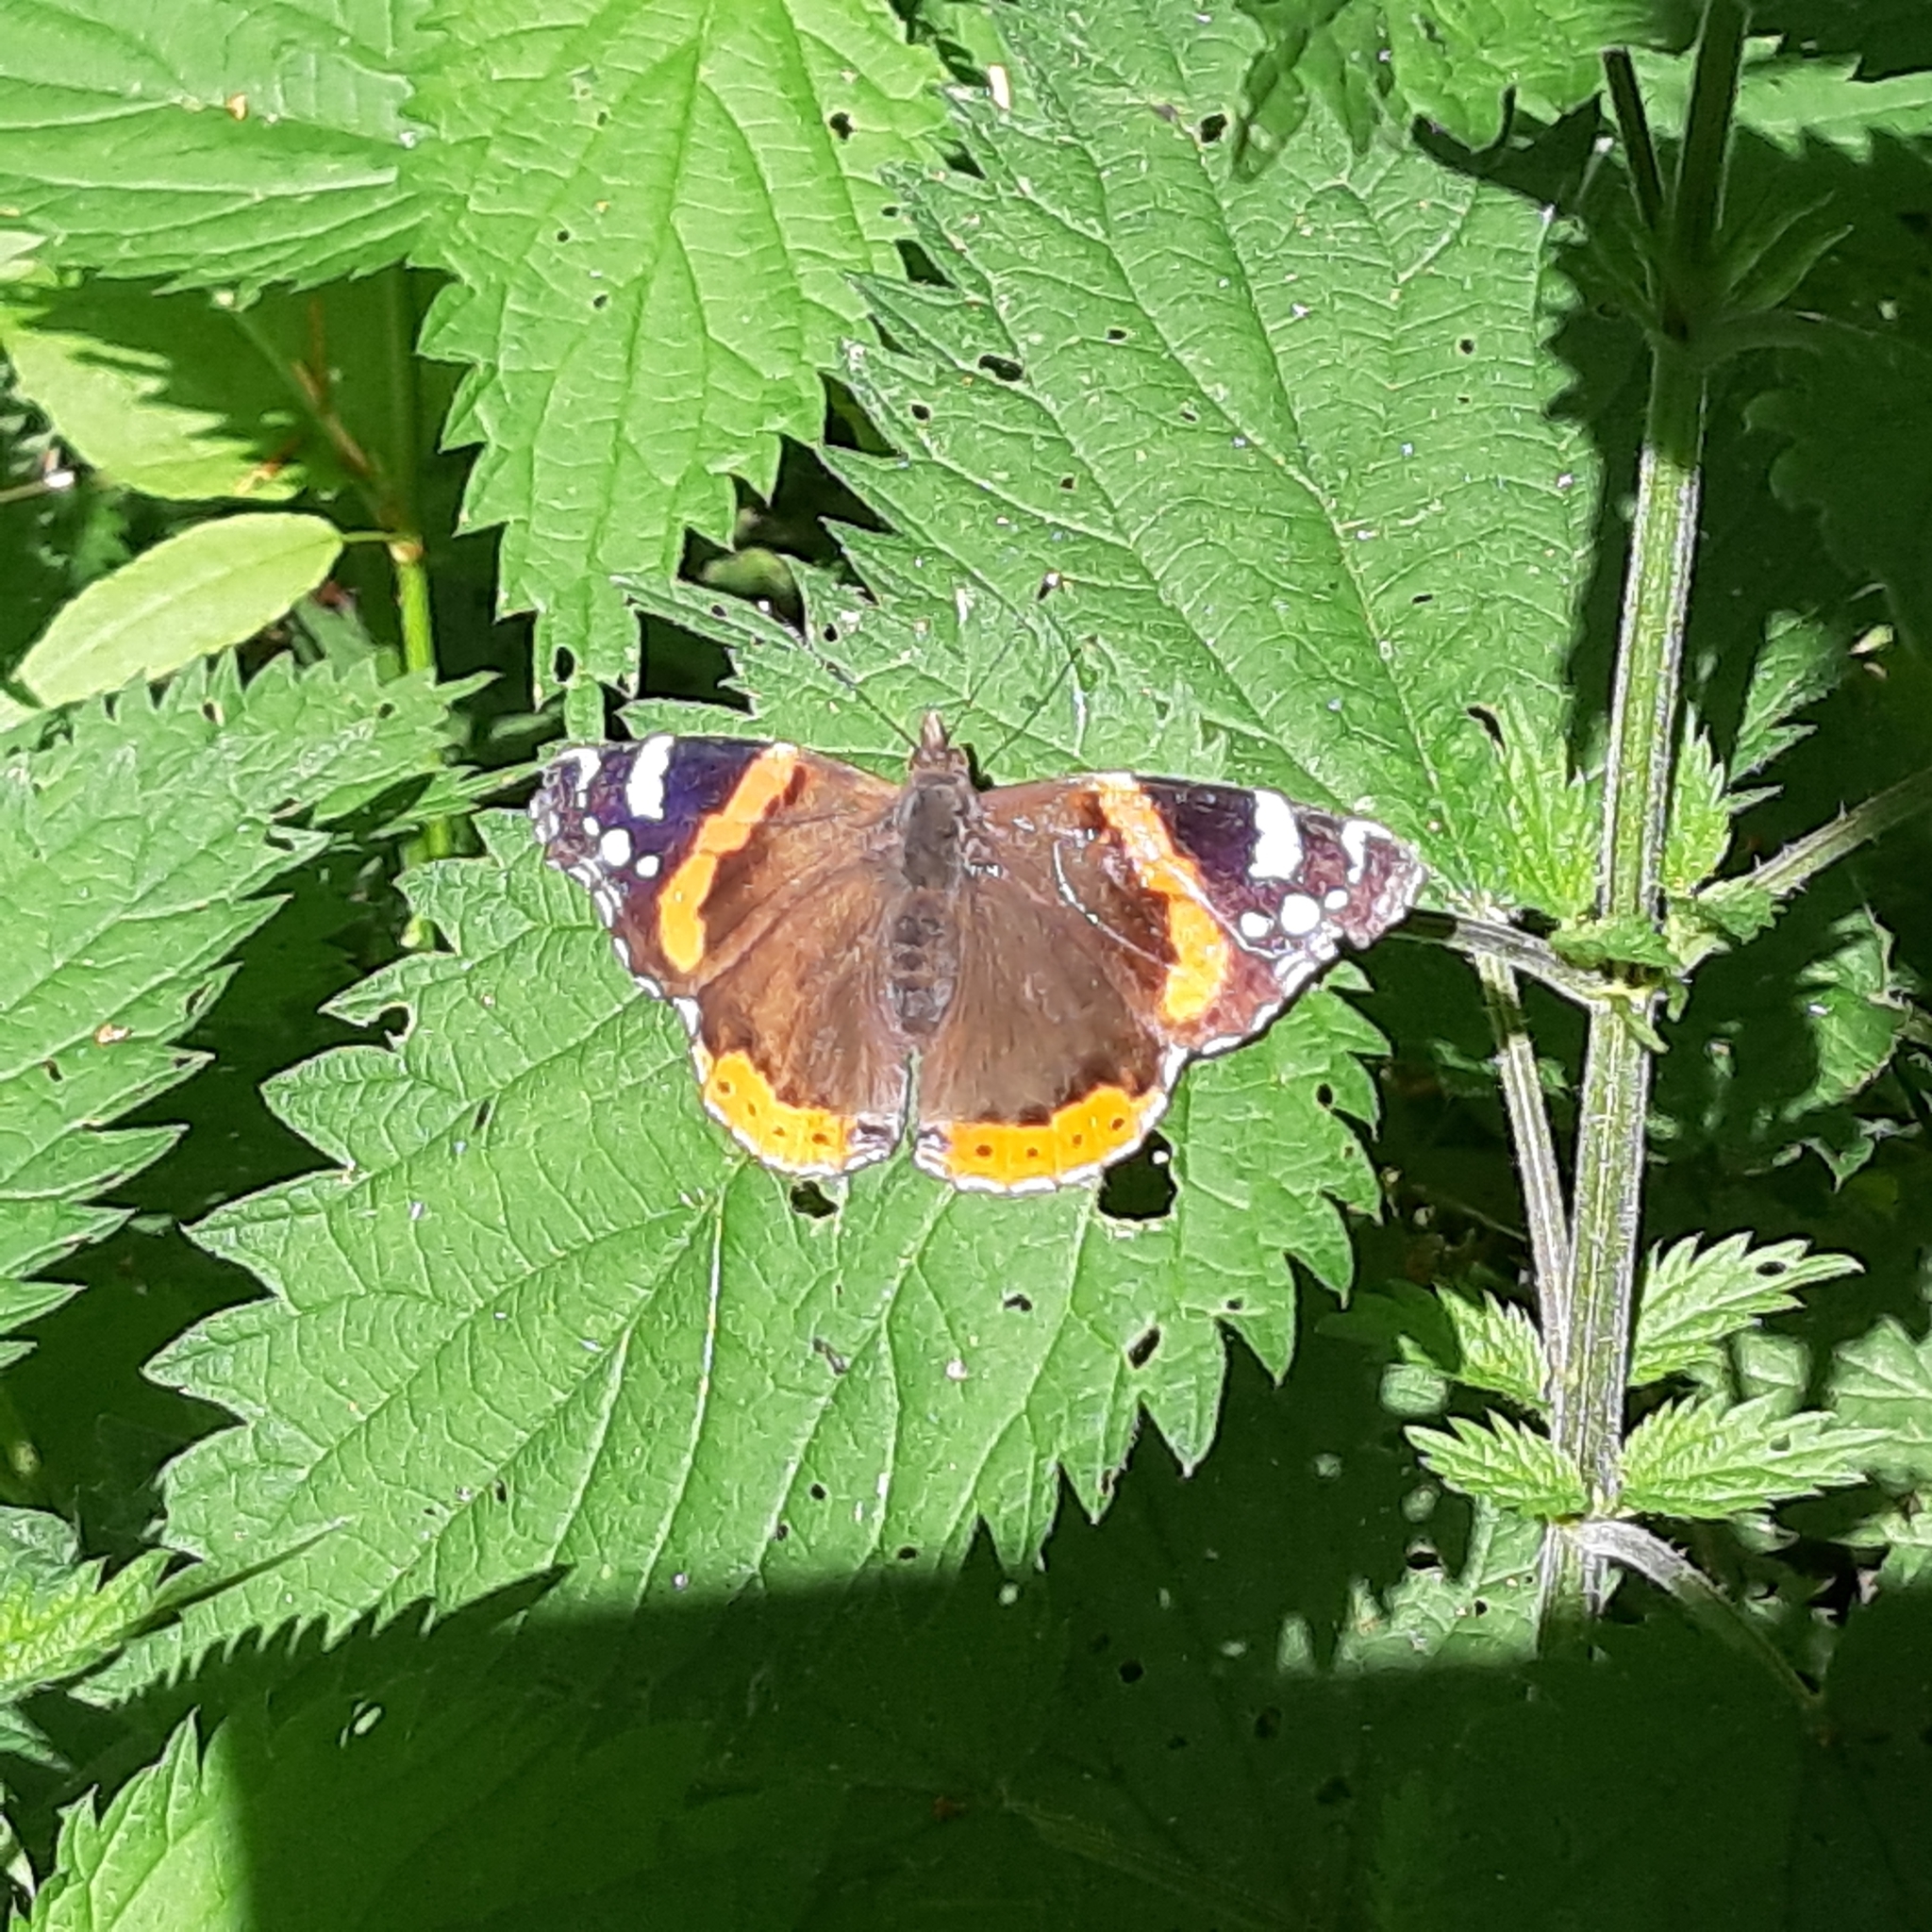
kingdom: Animalia
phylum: Arthropoda
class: Insecta
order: Lepidoptera
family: Nymphalidae
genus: Vanessa
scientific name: Vanessa atalanta
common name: Red admiral
